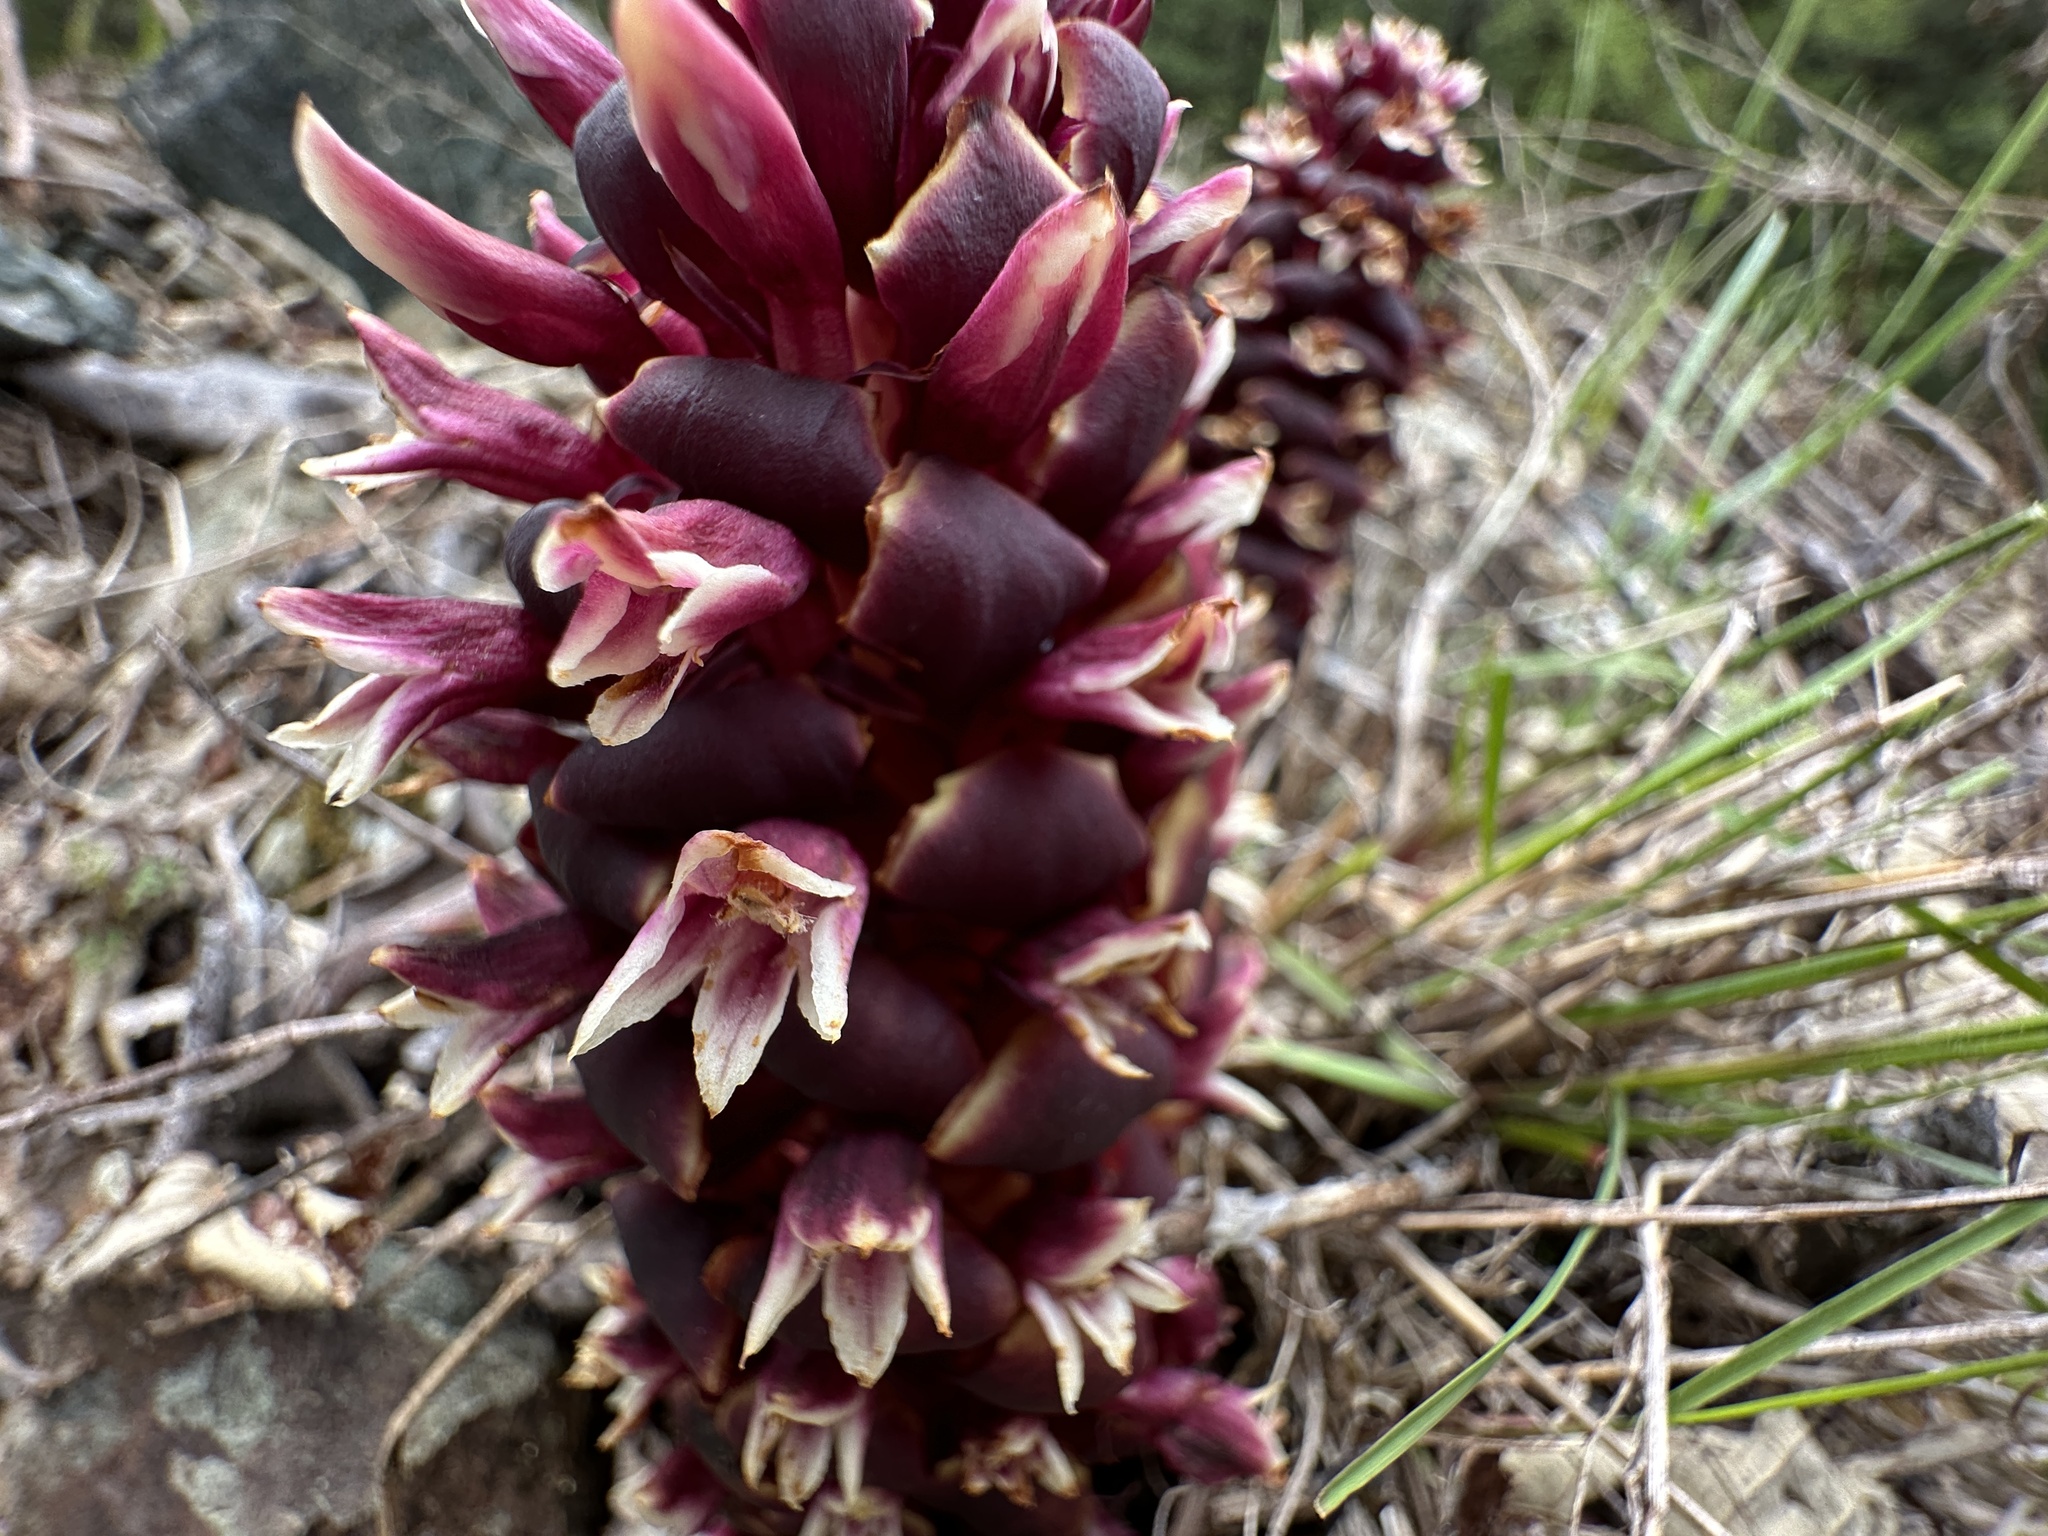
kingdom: Plantae
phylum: Tracheophyta
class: Magnoliopsida
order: Lamiales
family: Orobanchaceae
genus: Kopsiopsis
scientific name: Kopsiopsis strobilacea
